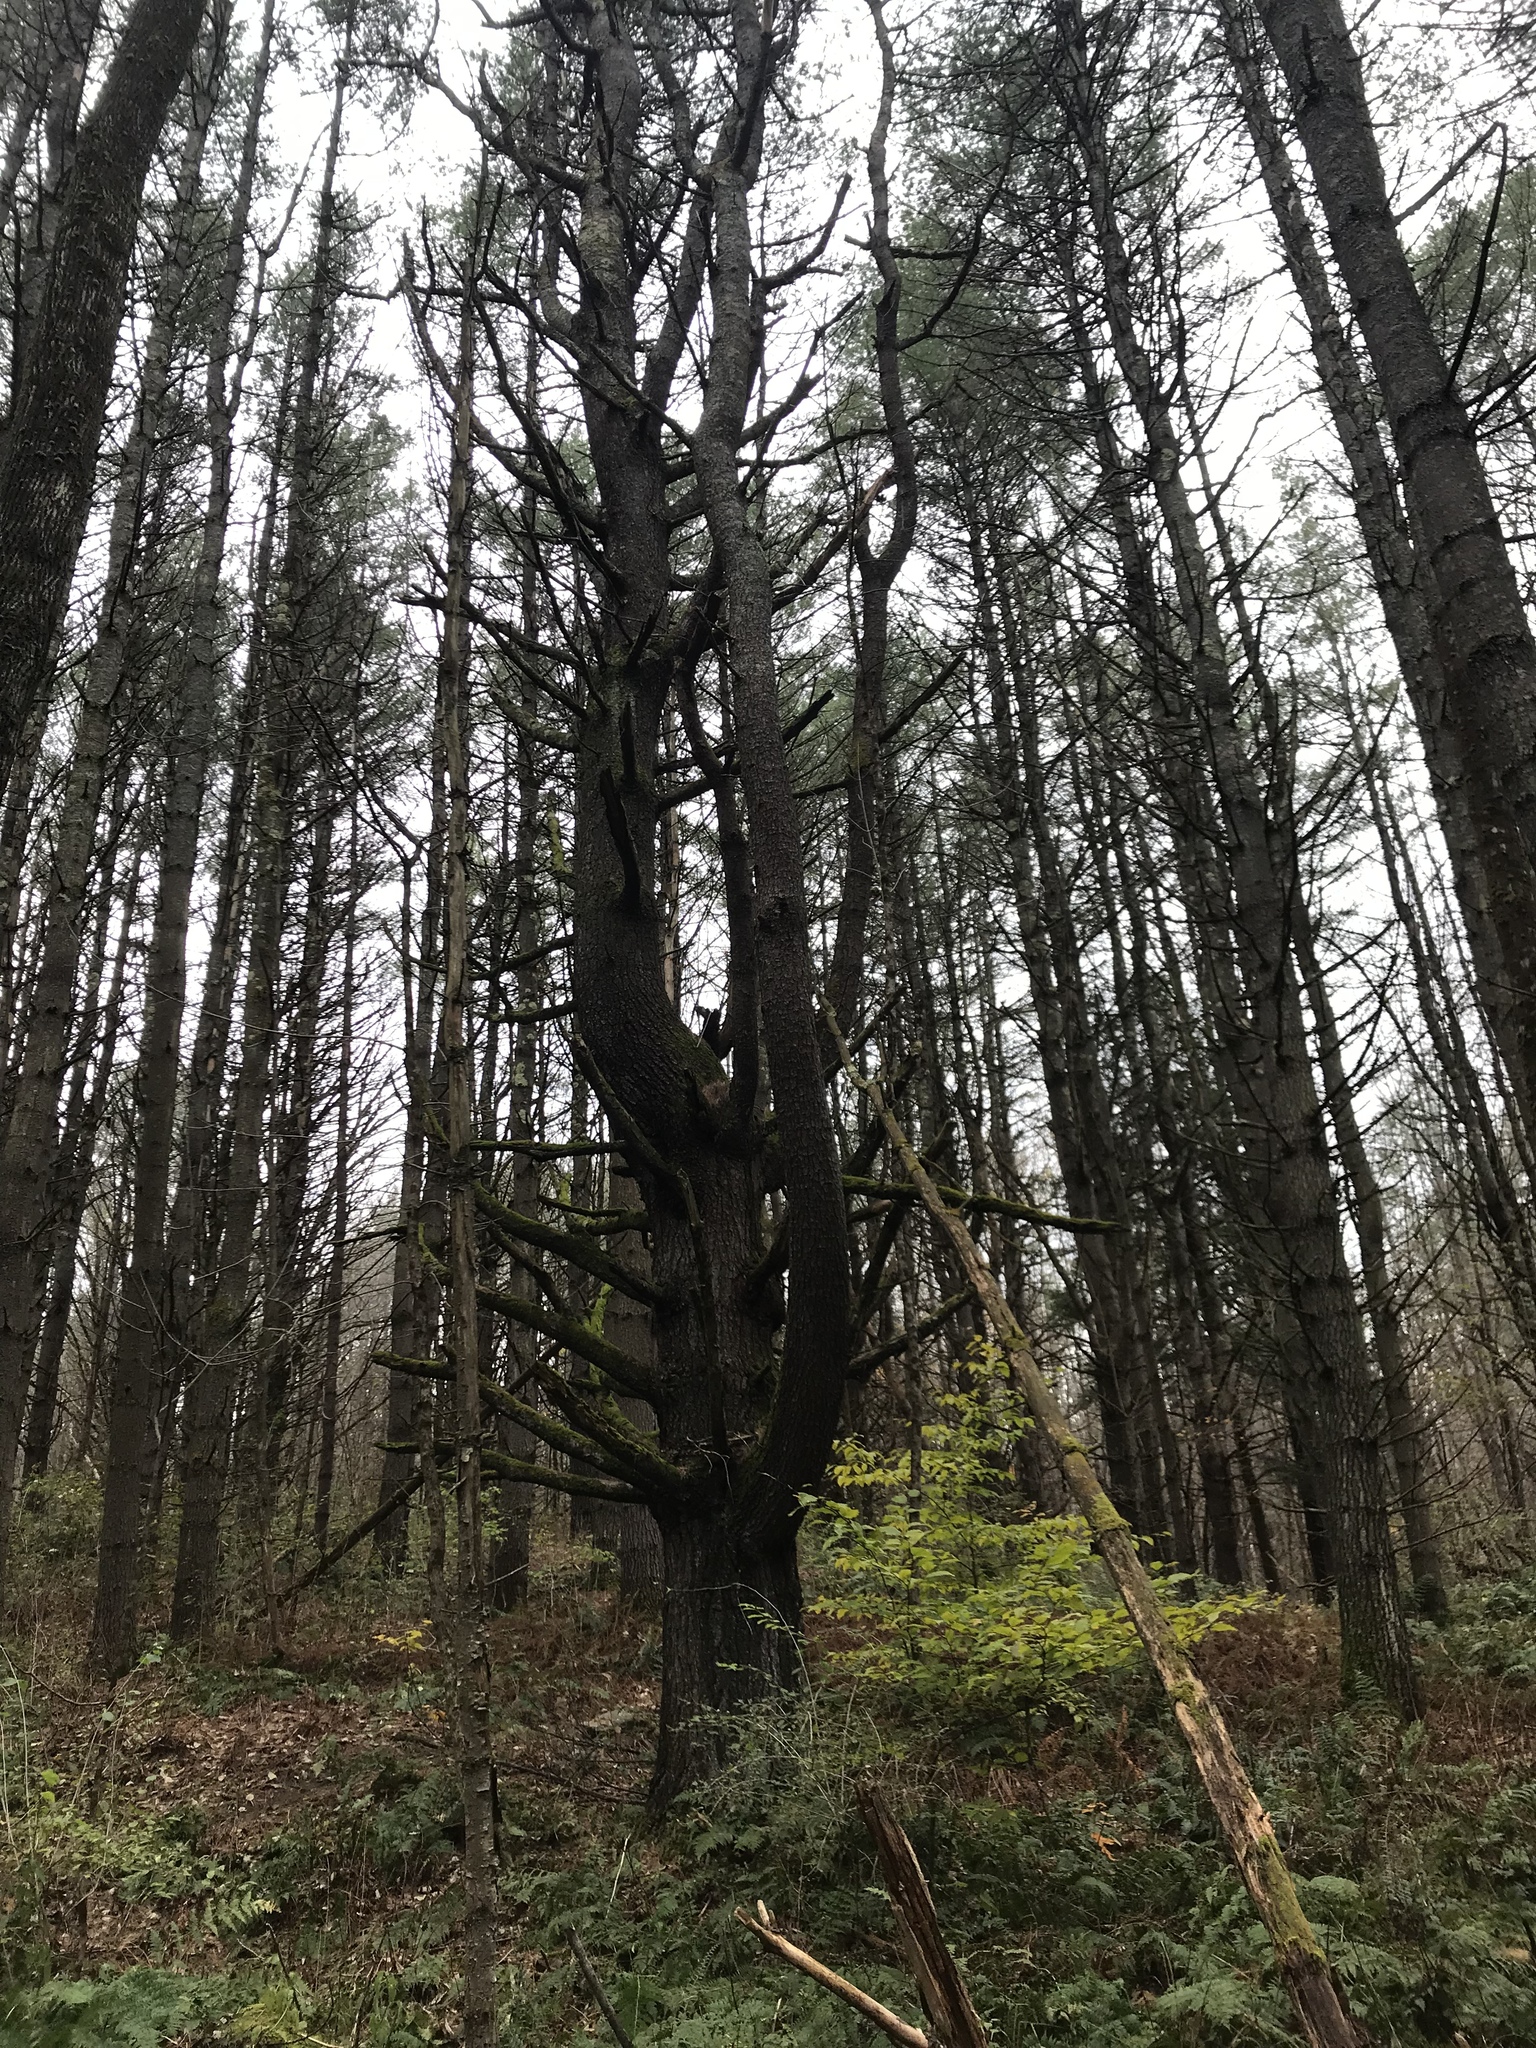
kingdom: Plantae
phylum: Tracheophyta
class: Pinopsida
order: Pinales
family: Pinaceae
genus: Pinus
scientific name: Pinus strobus
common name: Weymouth pine
